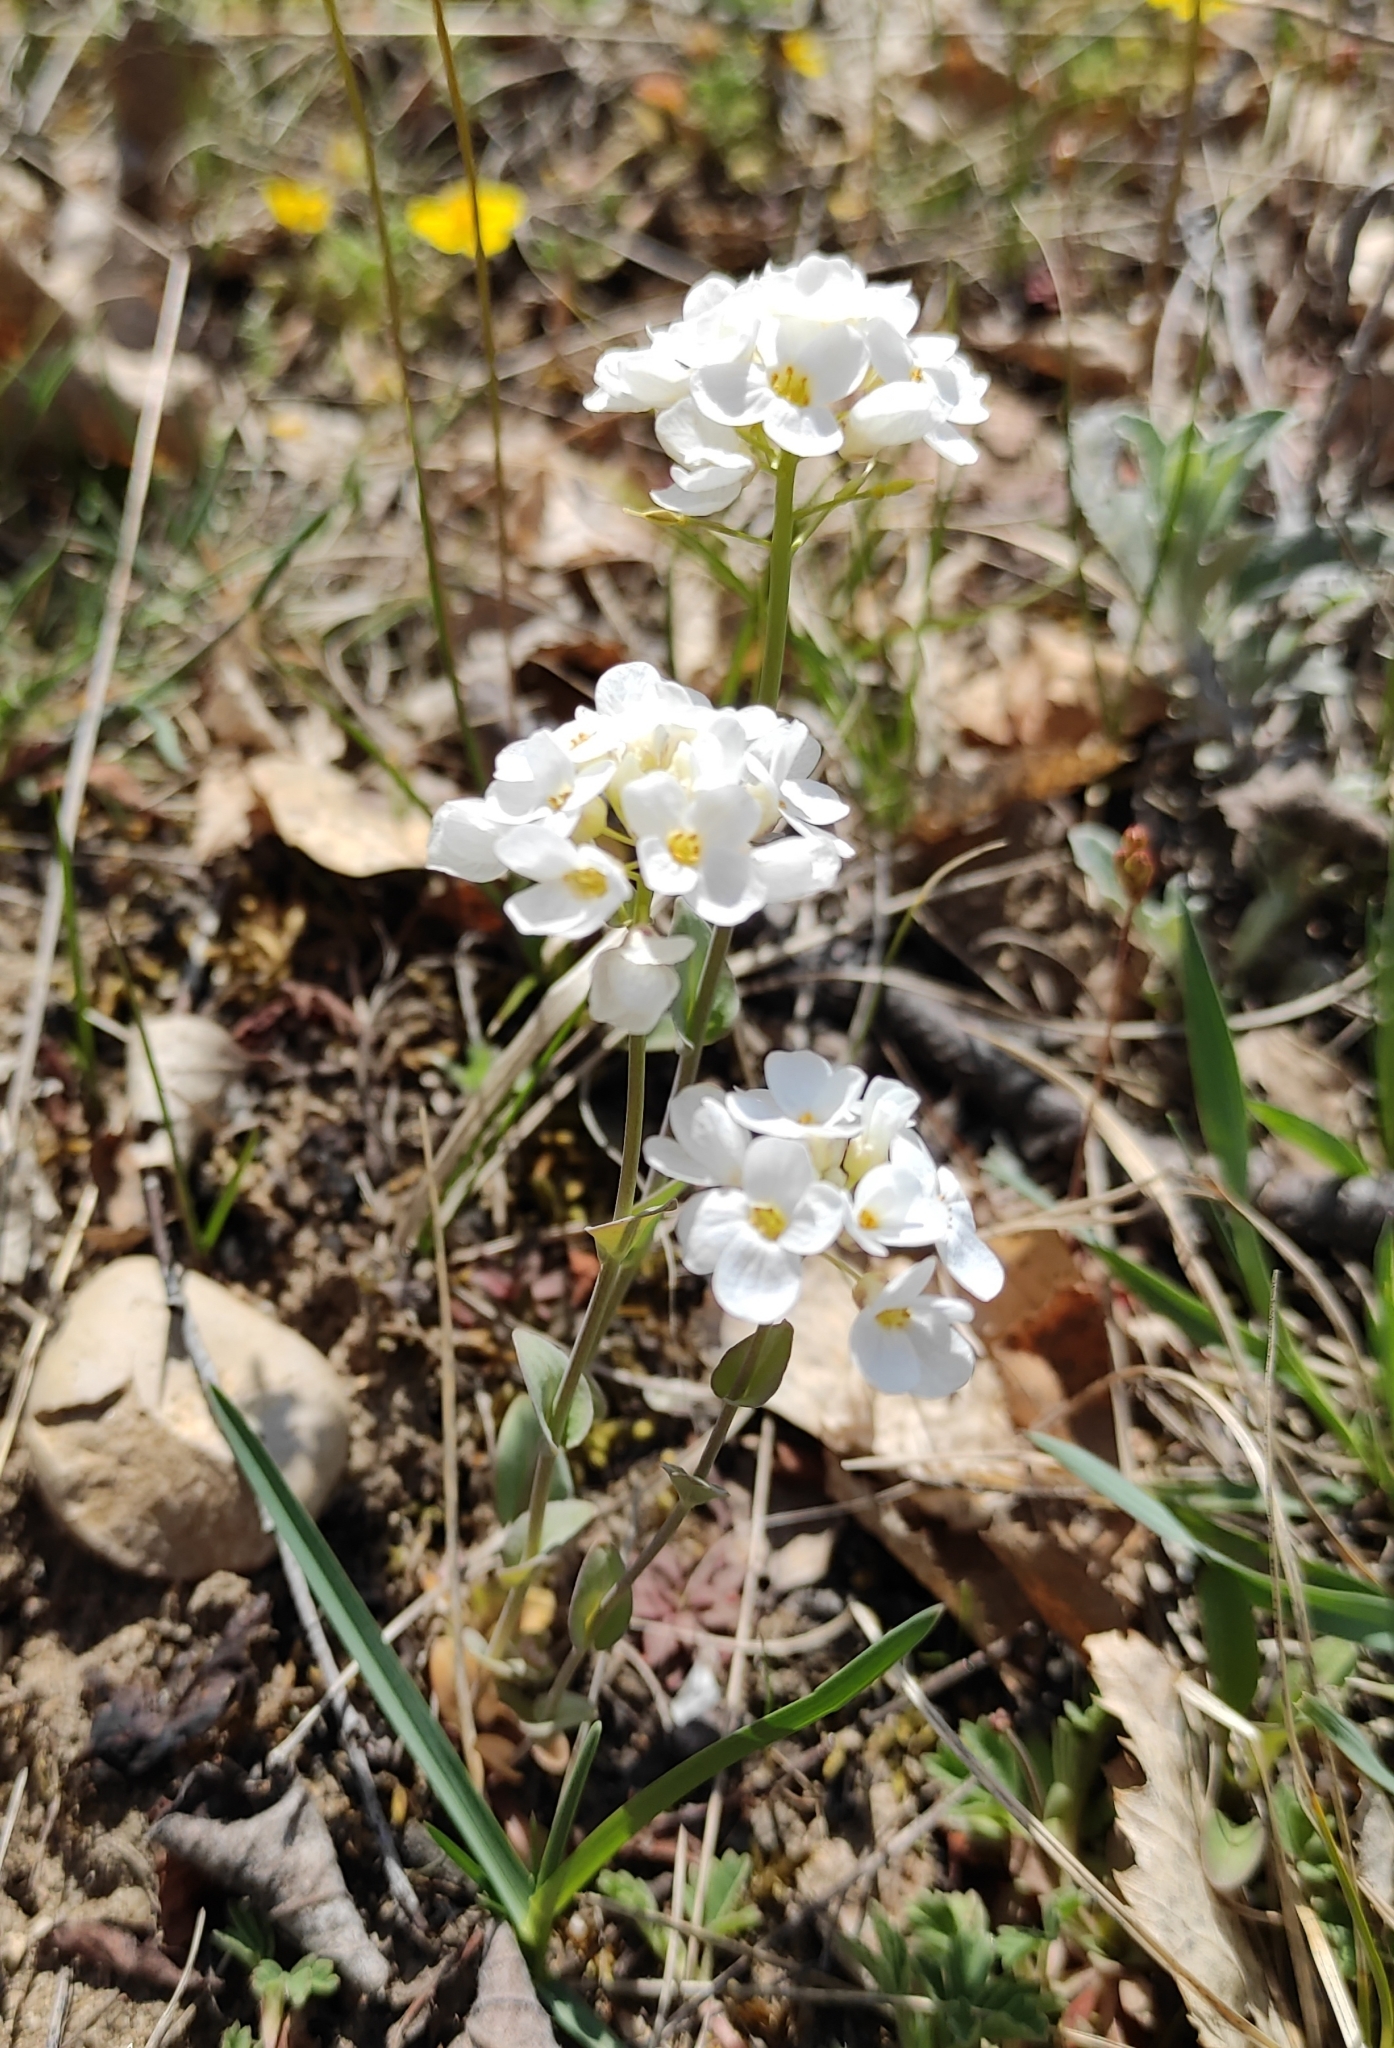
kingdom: Plantae
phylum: Tracheophyta
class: Magnoliopsida
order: Brassicales
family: Brassicaceae
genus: Noccaea
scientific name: Noccaea thlaspidioides
